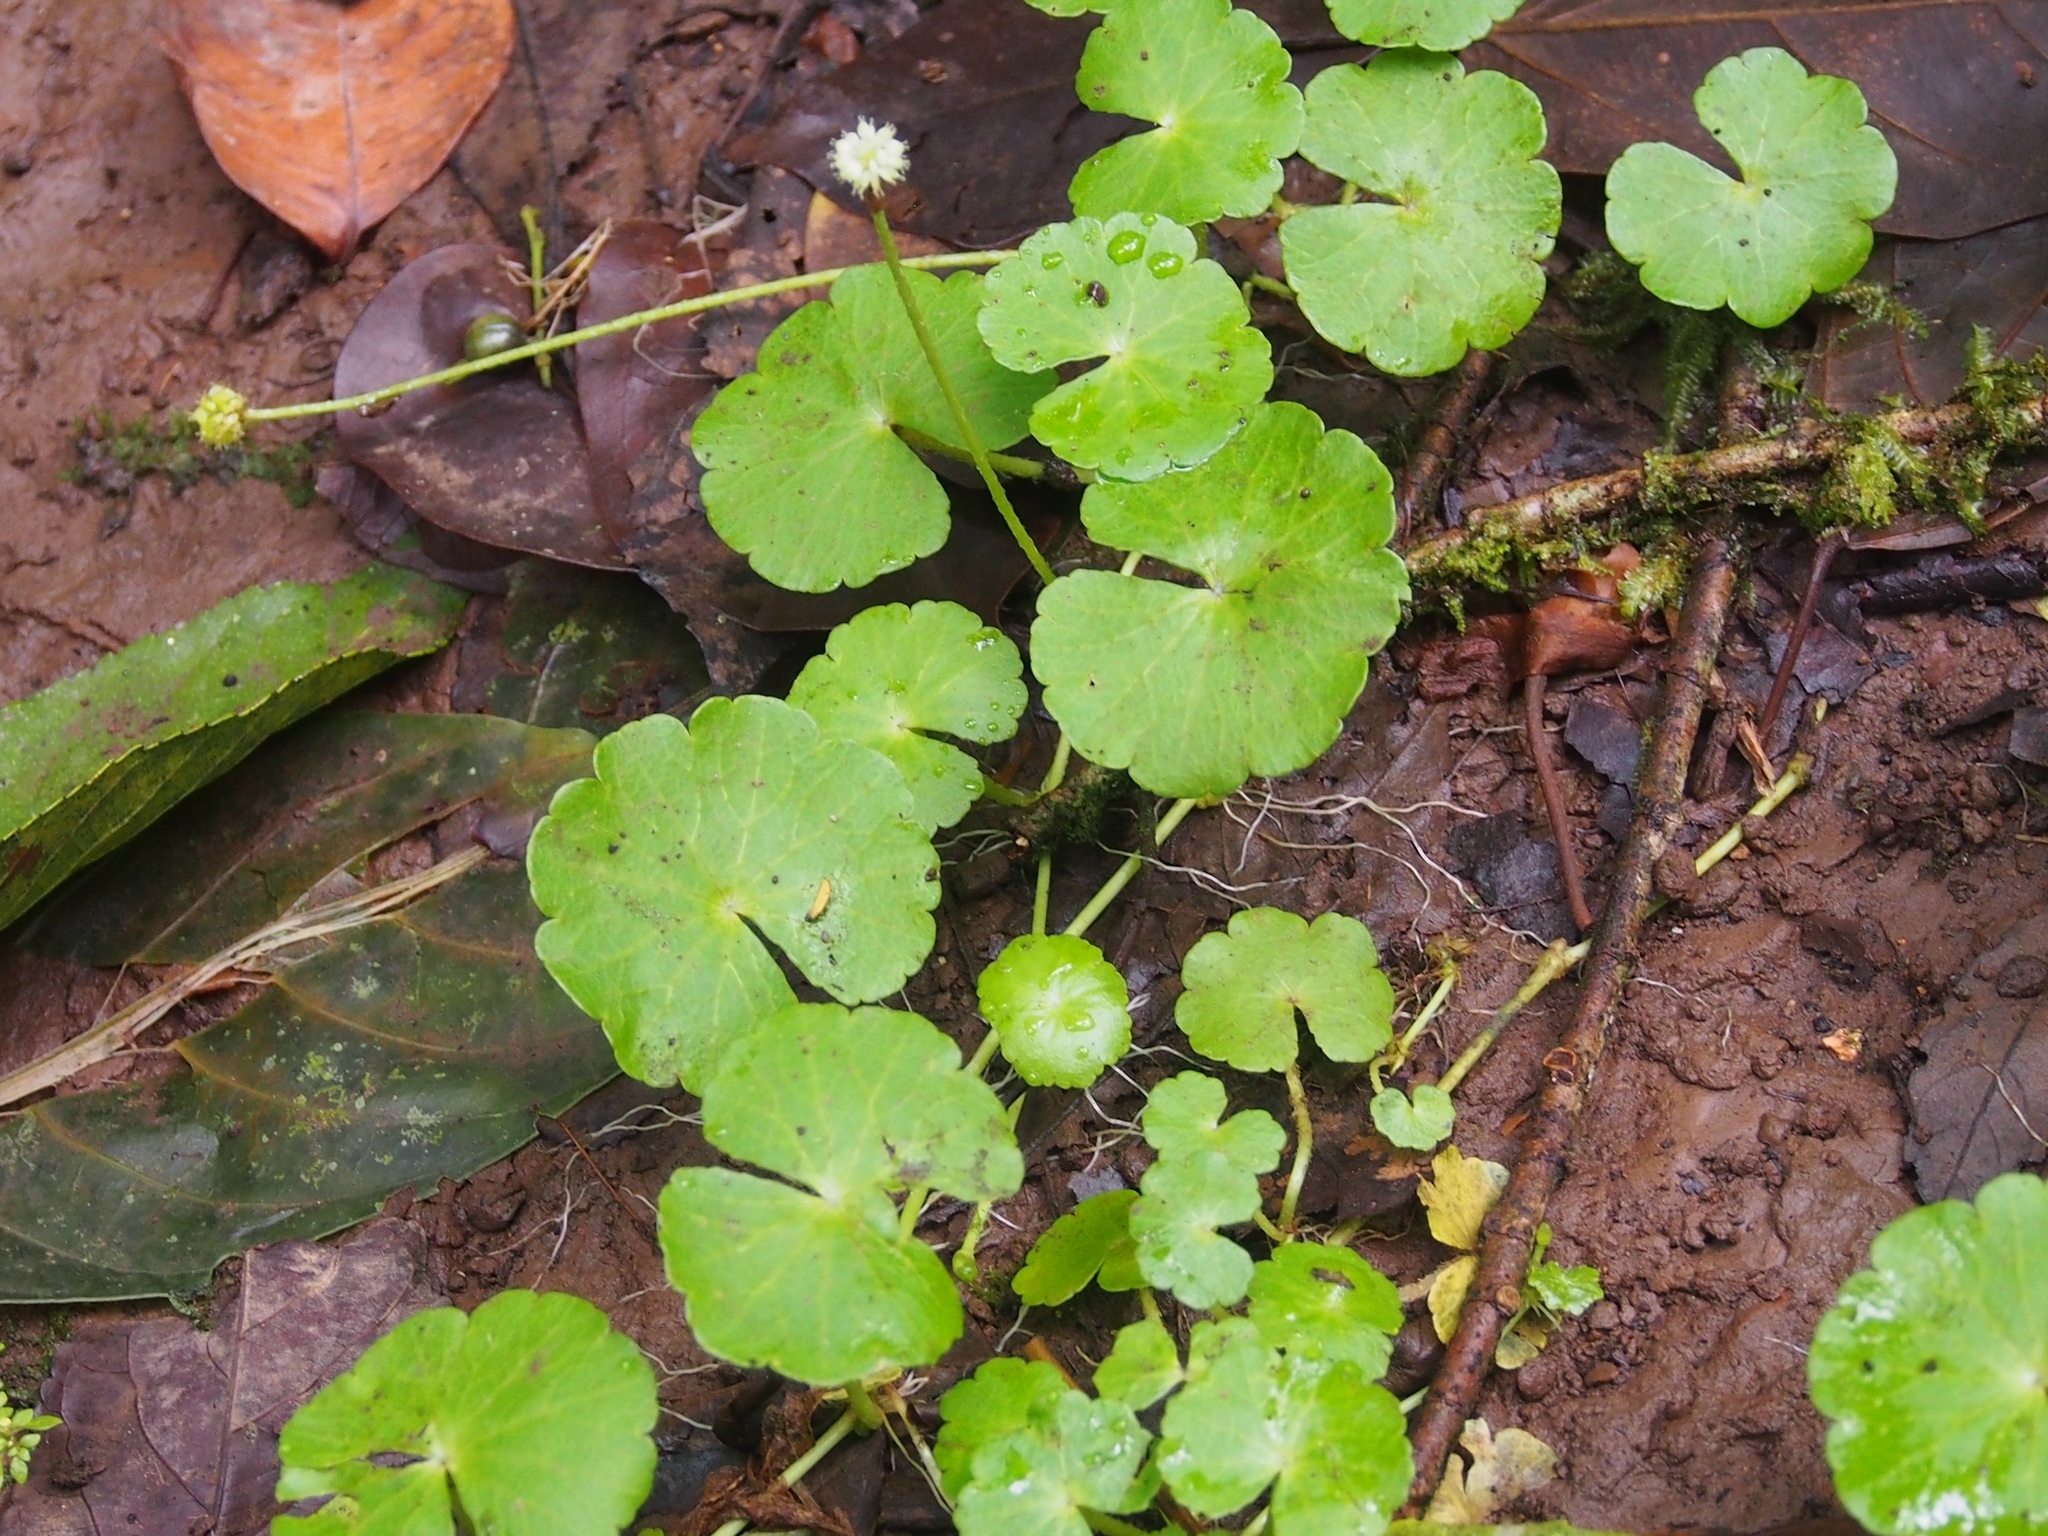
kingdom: Plantae
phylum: Tracheophyta
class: Magnoliopsida
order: Apiales
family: Araliaceae
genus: Hydrocotyle
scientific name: Hydrocotyle leucocephala
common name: Brazilian pennywort
